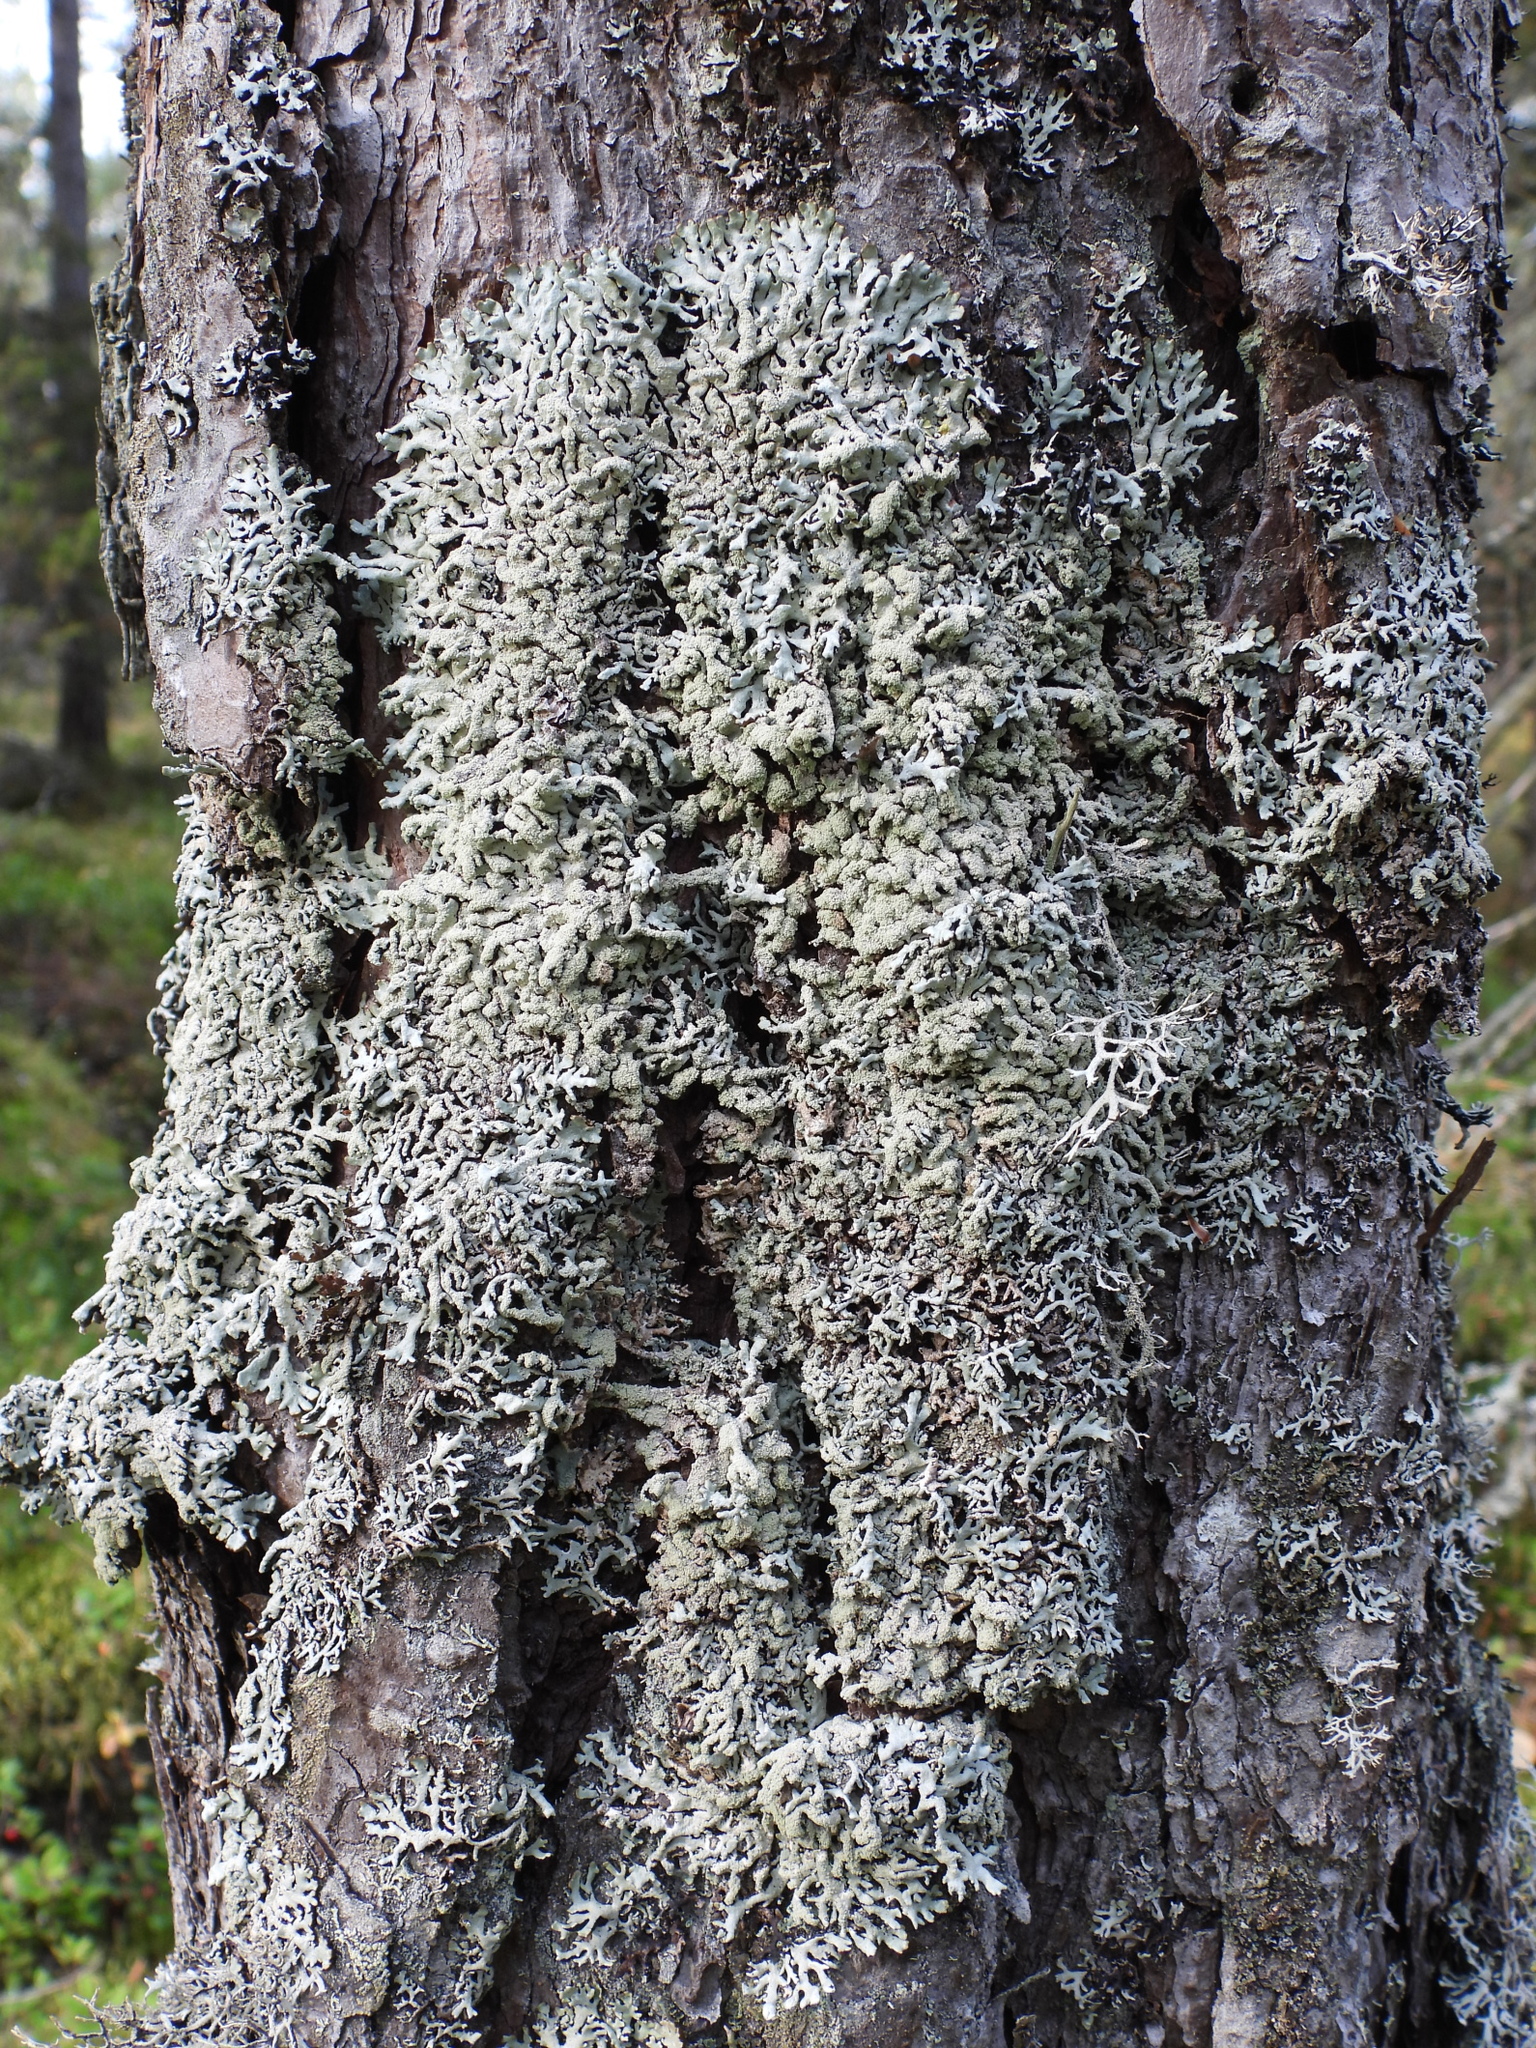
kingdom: Fungi
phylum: Ascomycota
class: Lecanoromycetes
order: Lecanorales
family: Parmeliaceae
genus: Hypogymnia
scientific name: Hypogymnia farinacea
